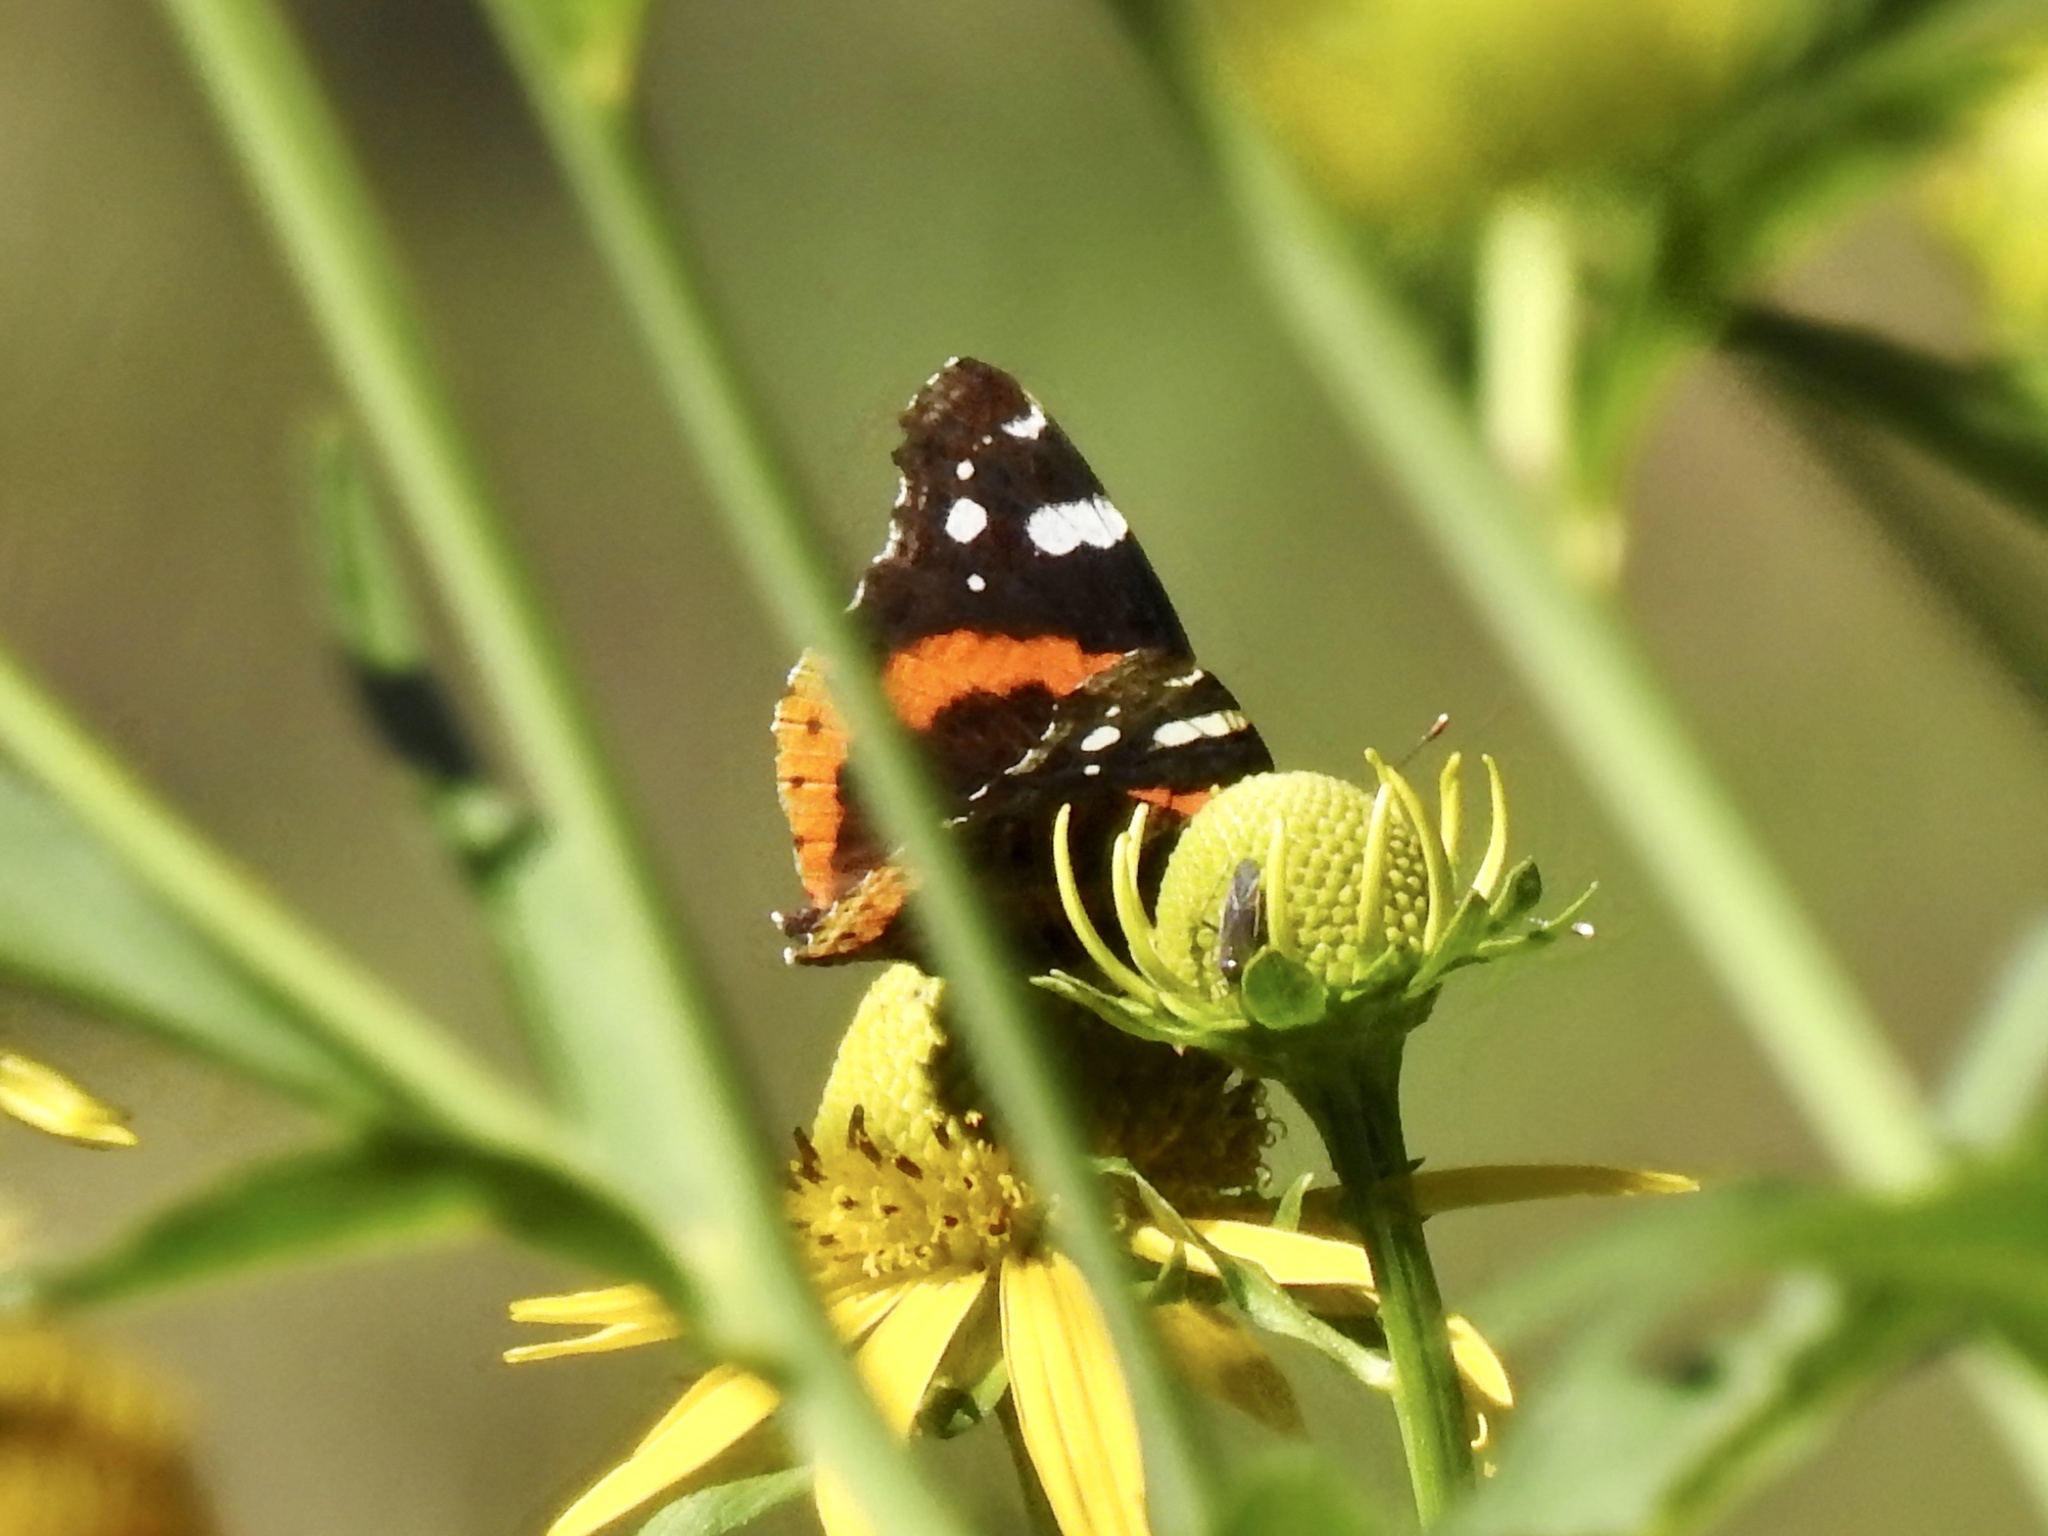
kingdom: Animalia
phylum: Arthropoda
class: Insecta
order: Lepidoptera
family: Nymphalidae
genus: Vanessa
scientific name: Vanessa atalanta
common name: Red admiral
